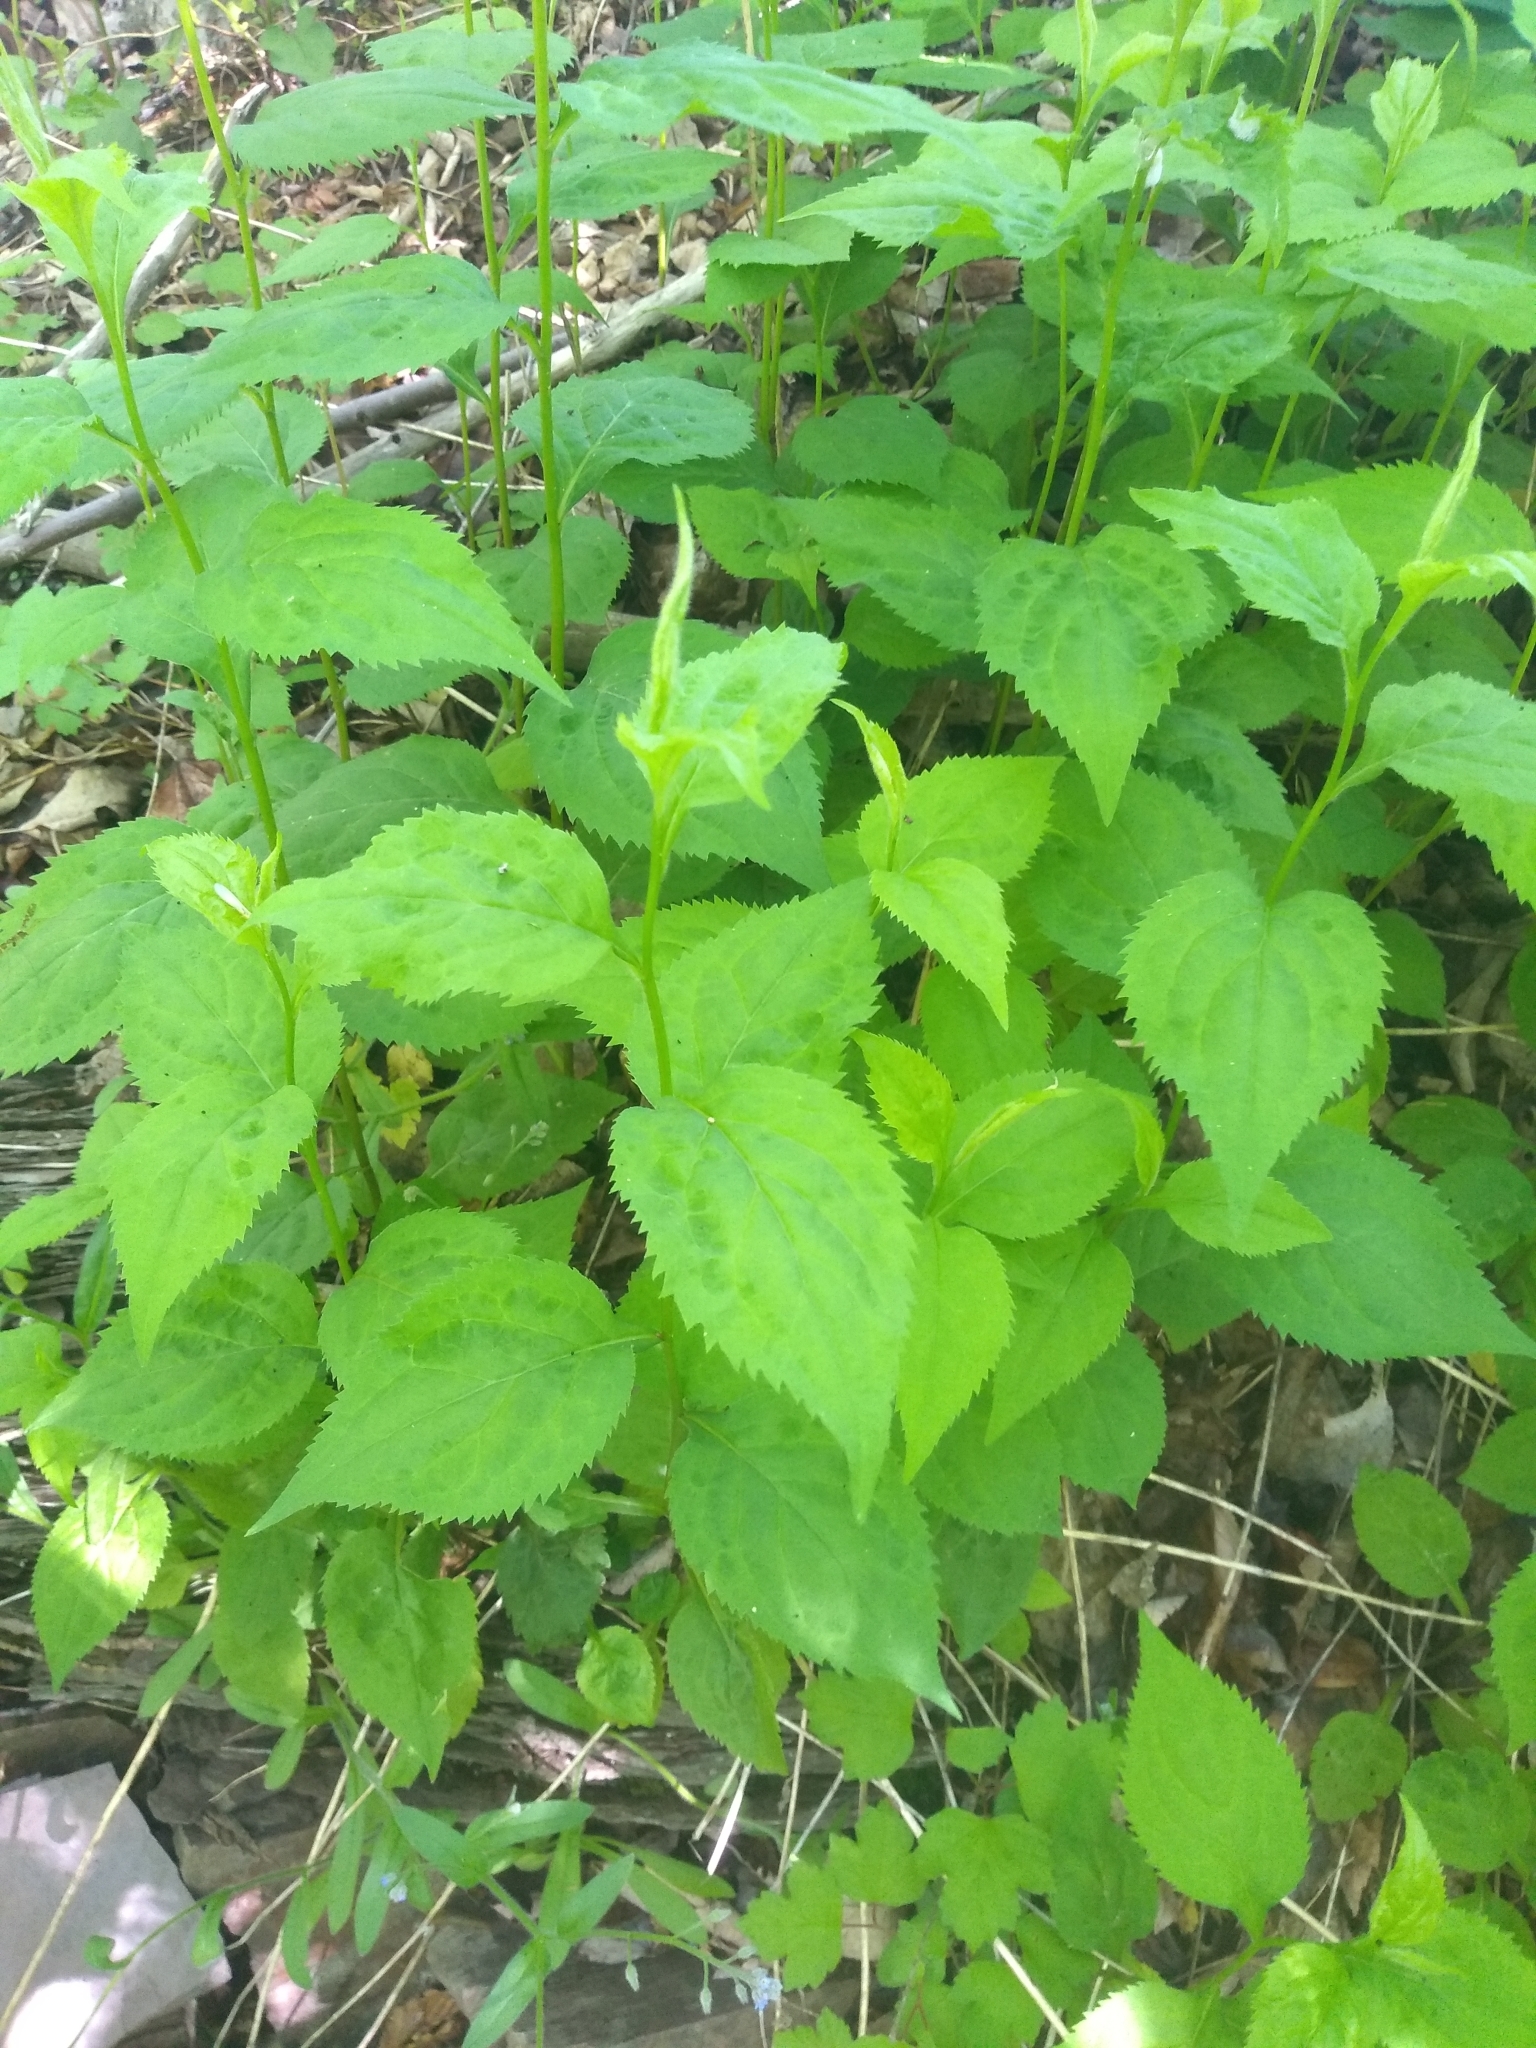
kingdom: Plantae
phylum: Tracheophyta
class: Magnoliopsida
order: Asterales
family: Asteraceae
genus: Solidago
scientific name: Solidago flexicaulis
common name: Zig-zag goldenrod
